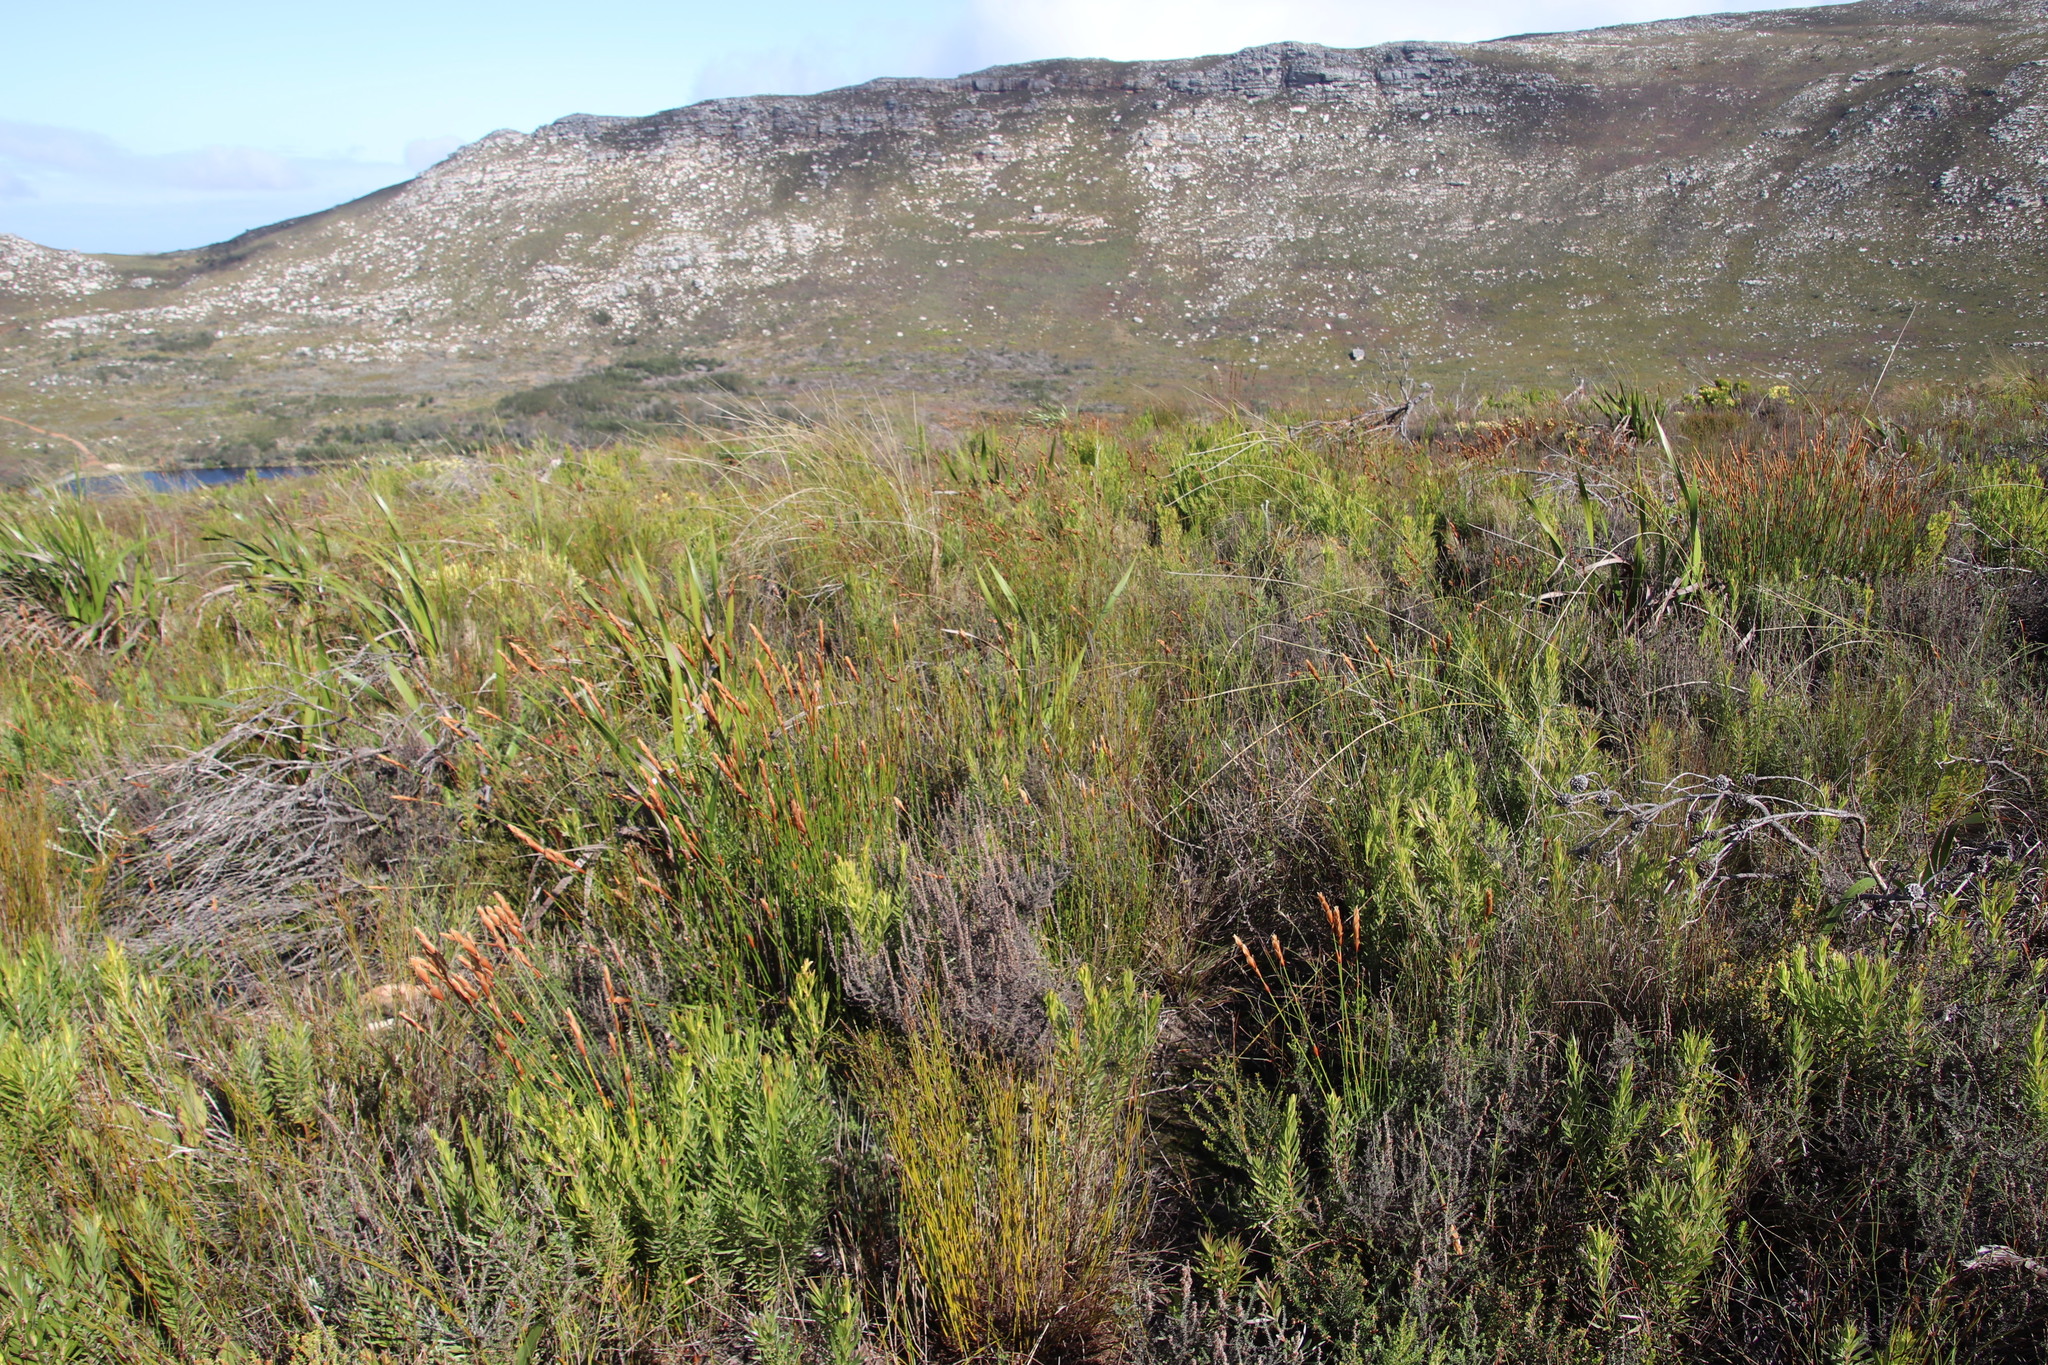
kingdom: Plantae
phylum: Tracheophyta
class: Liliopsida
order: Poales
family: Restionaceae
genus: Elegia
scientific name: Elegia racemosa
